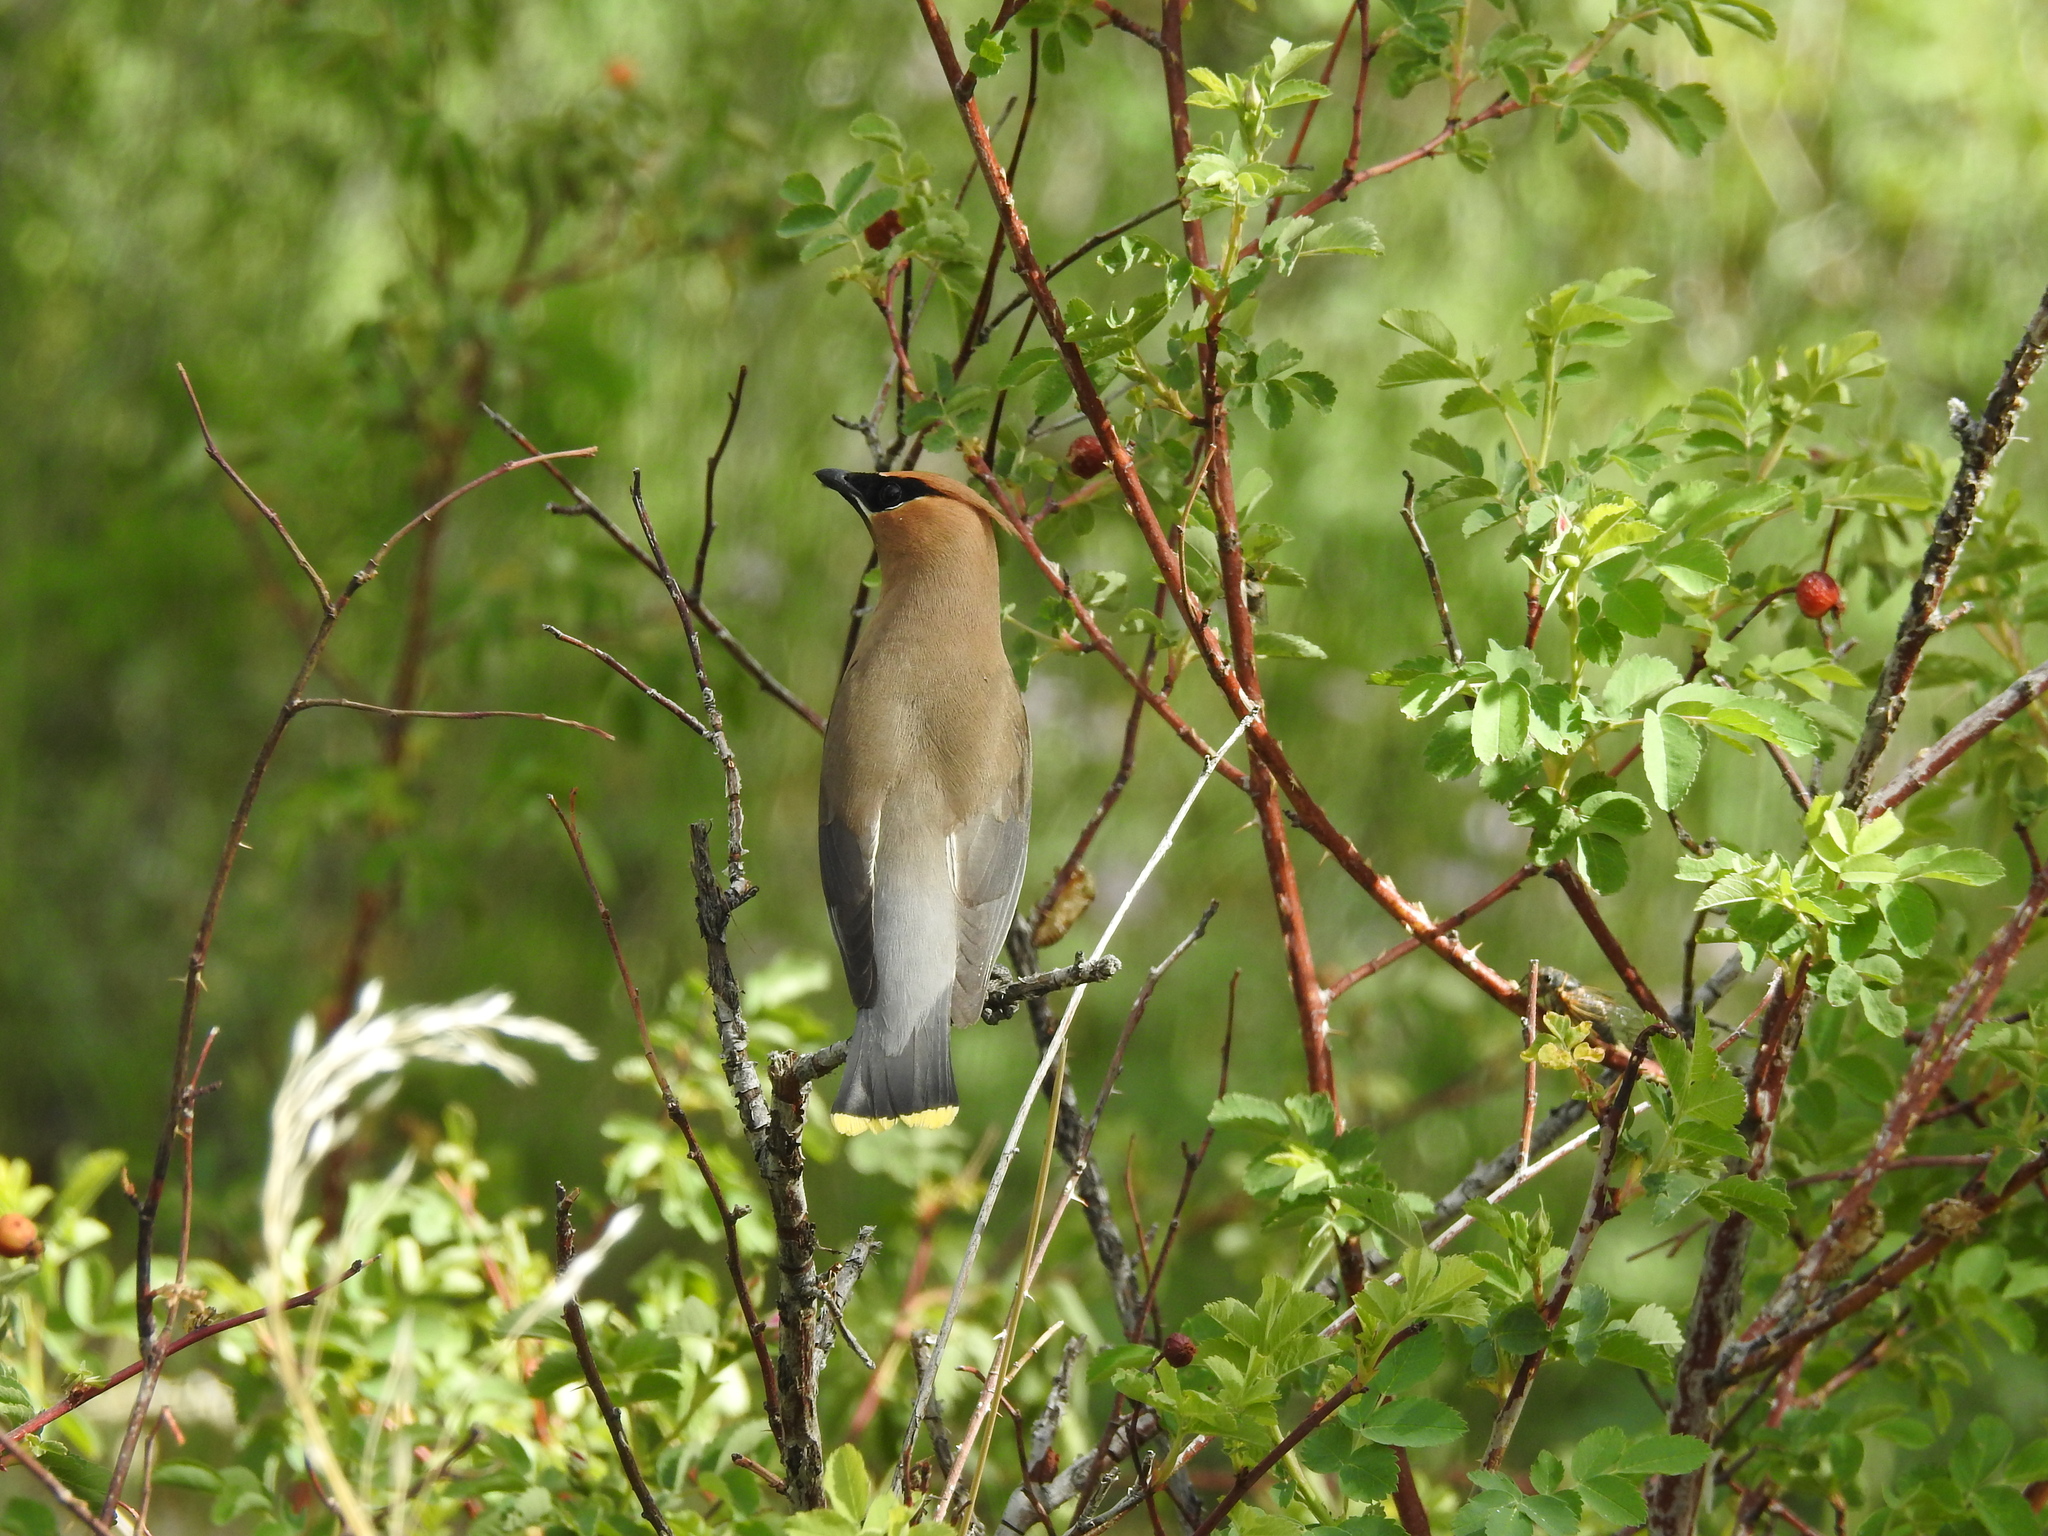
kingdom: Animalia
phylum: Chordata
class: Aves
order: Passeriformes
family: Bombycillidae
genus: Bombycilla
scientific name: Bombycilla cedrorum
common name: Cedar waxwing
